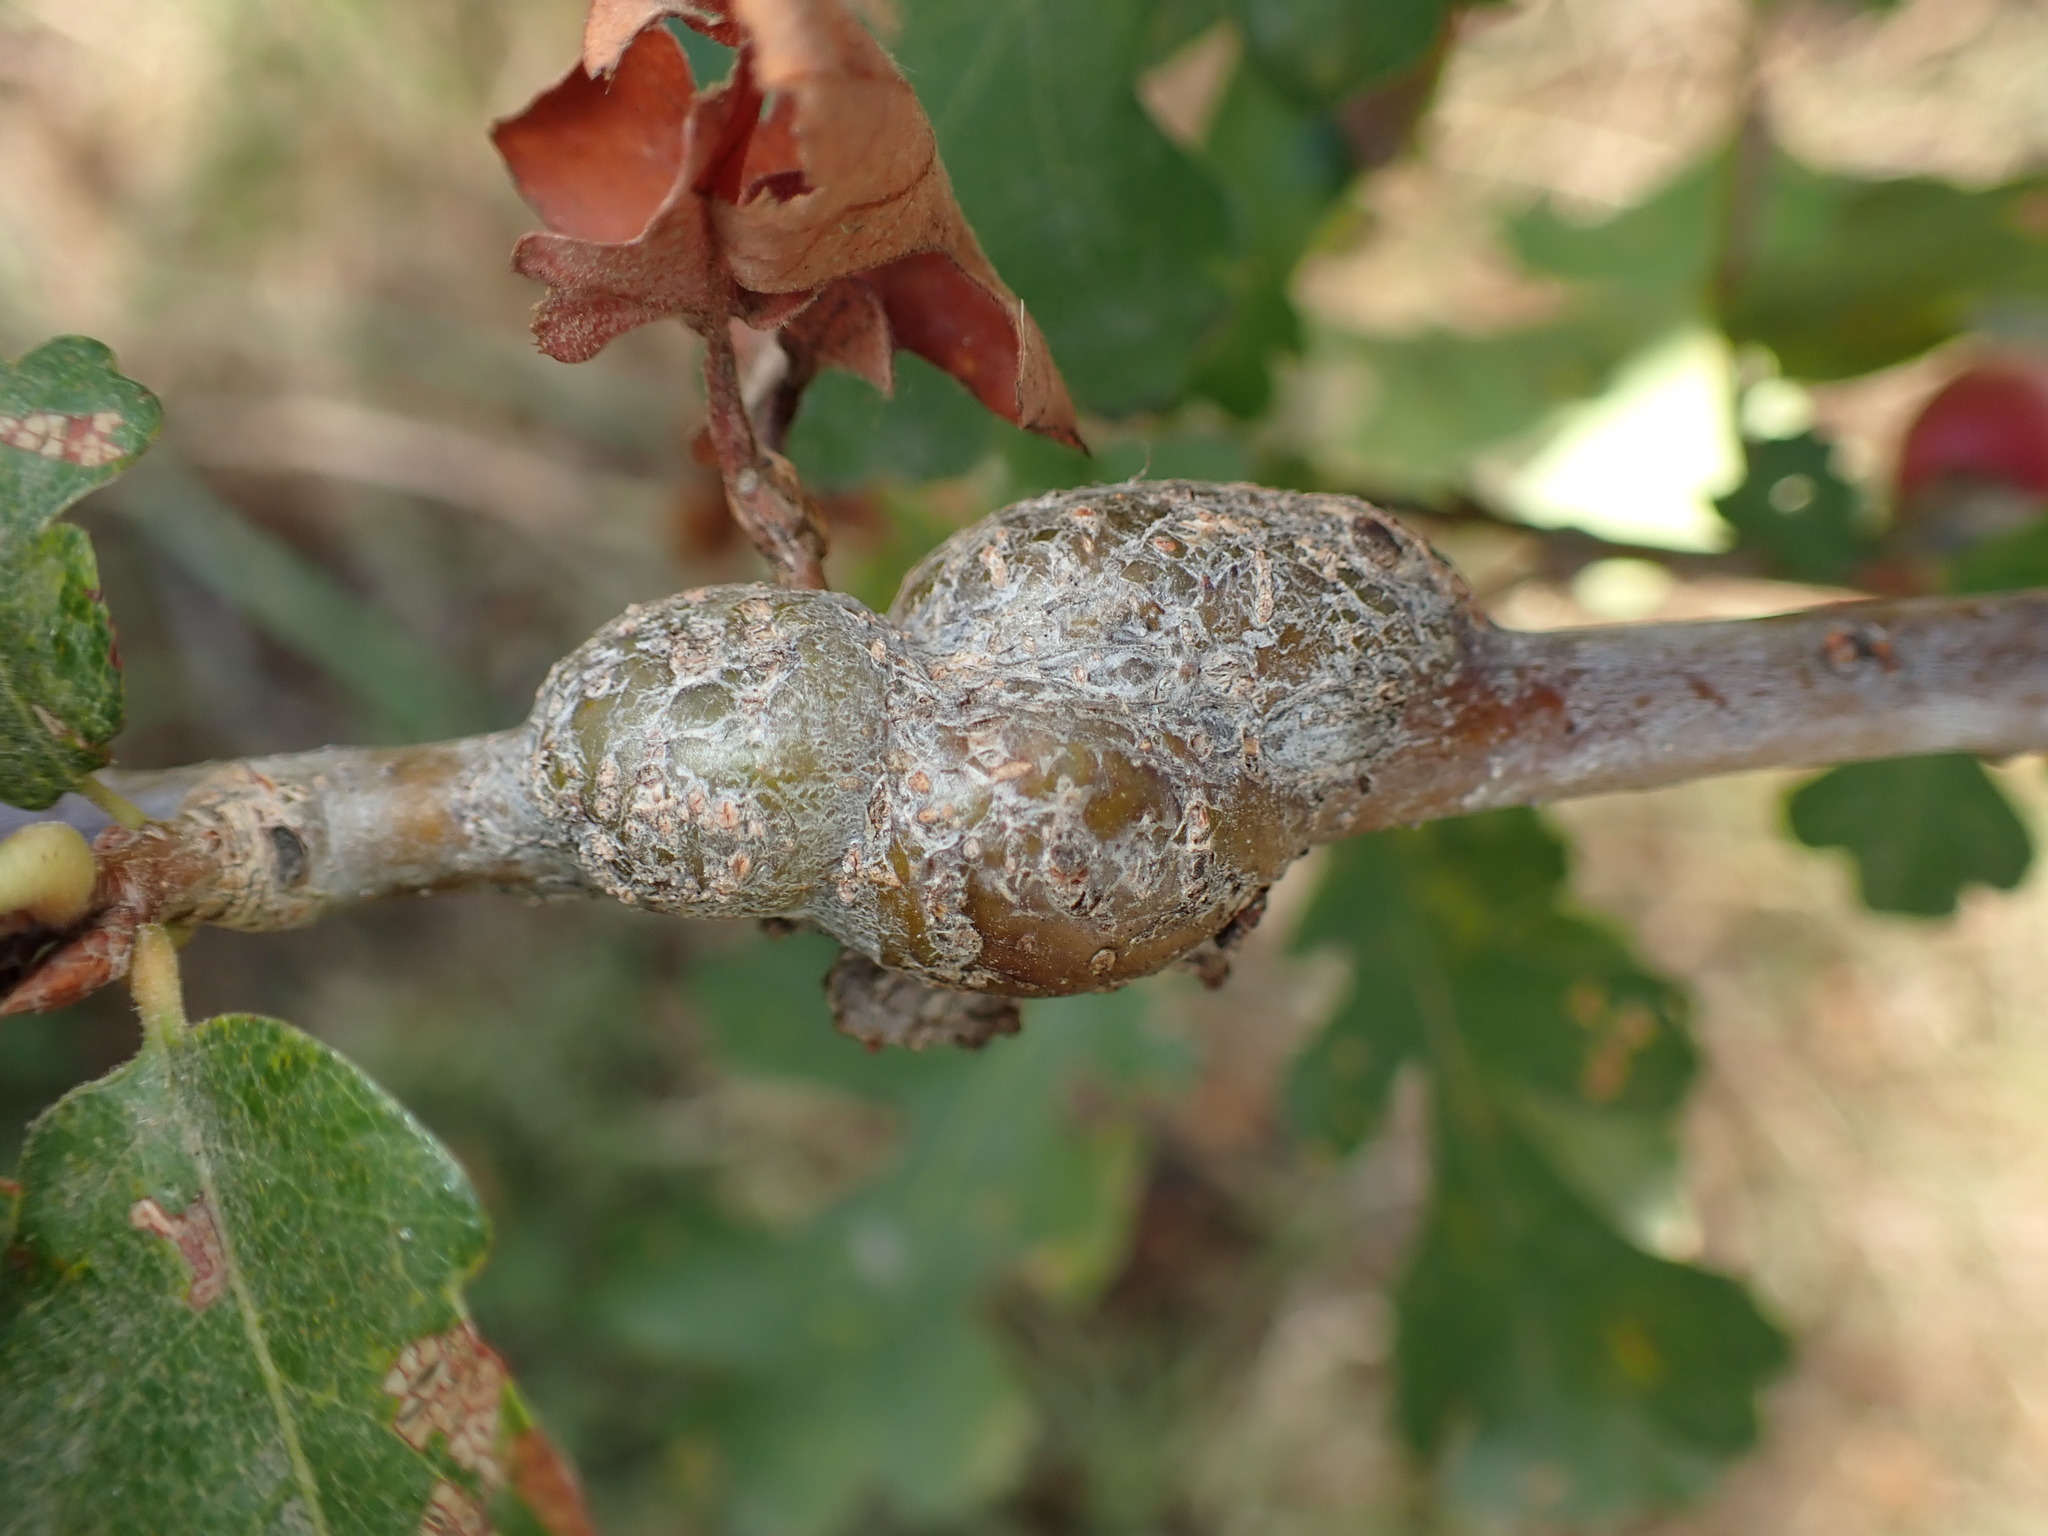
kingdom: Animalia
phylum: Arthropoda
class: Insecta
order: Hymenoptera
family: Cynipidae
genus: Andricus
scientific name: Andricus
